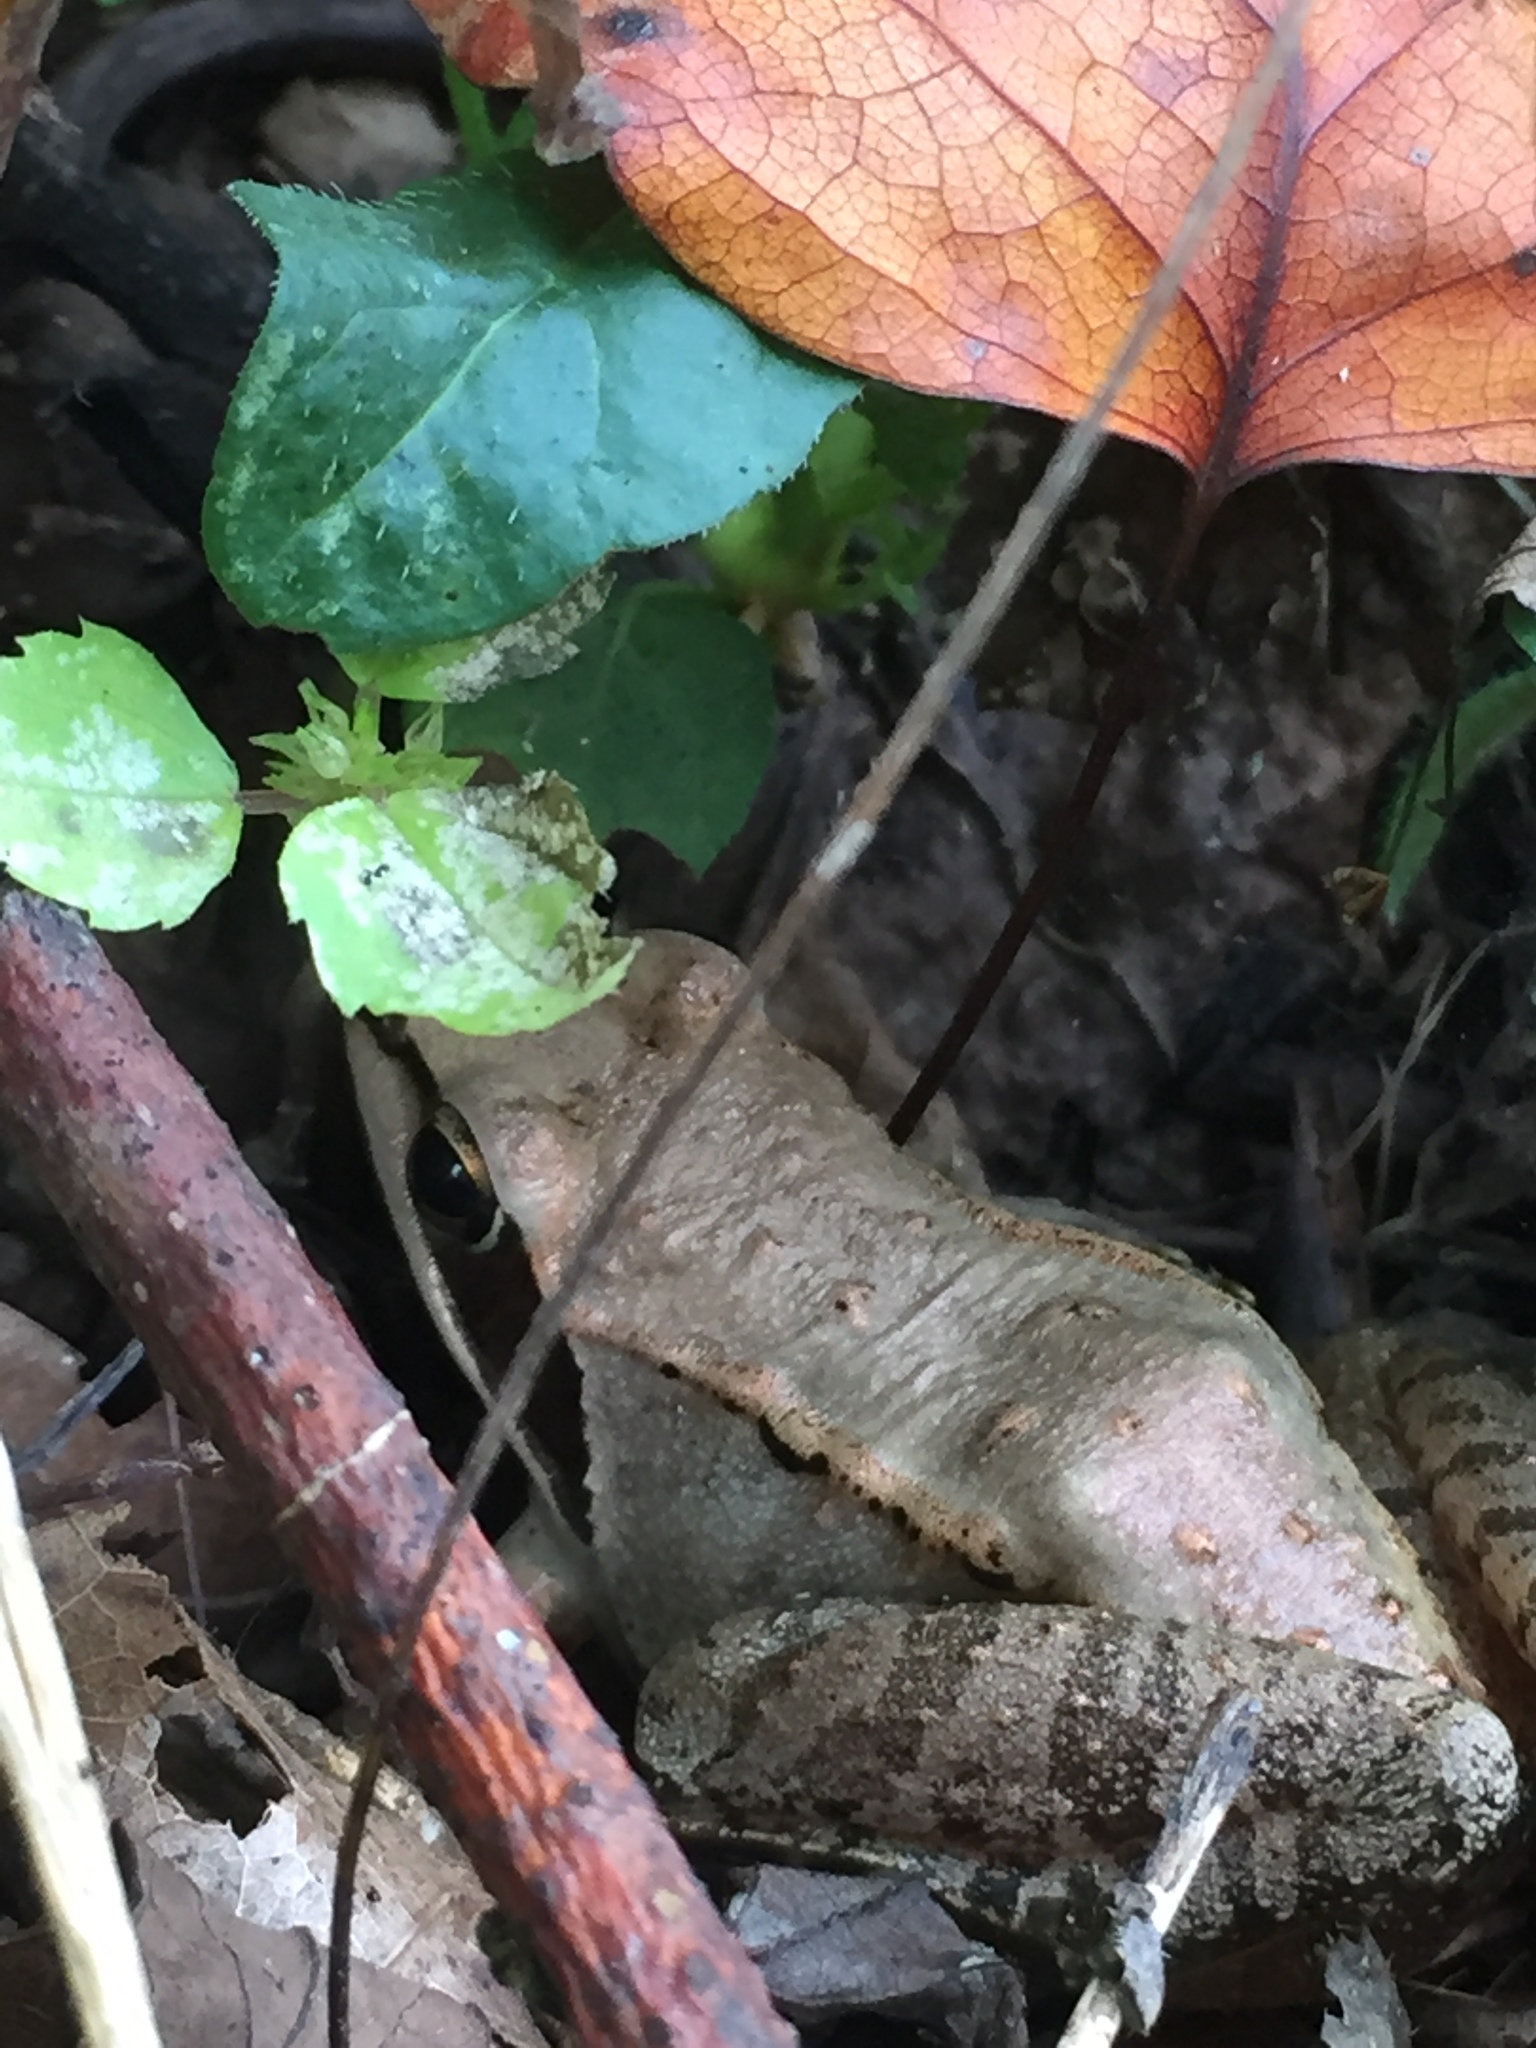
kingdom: Animalia
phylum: Chordata
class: Amphibia
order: Anura
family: Ranidae
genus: Lithobates
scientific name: Lithobates sylvaticus
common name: Wood frog
